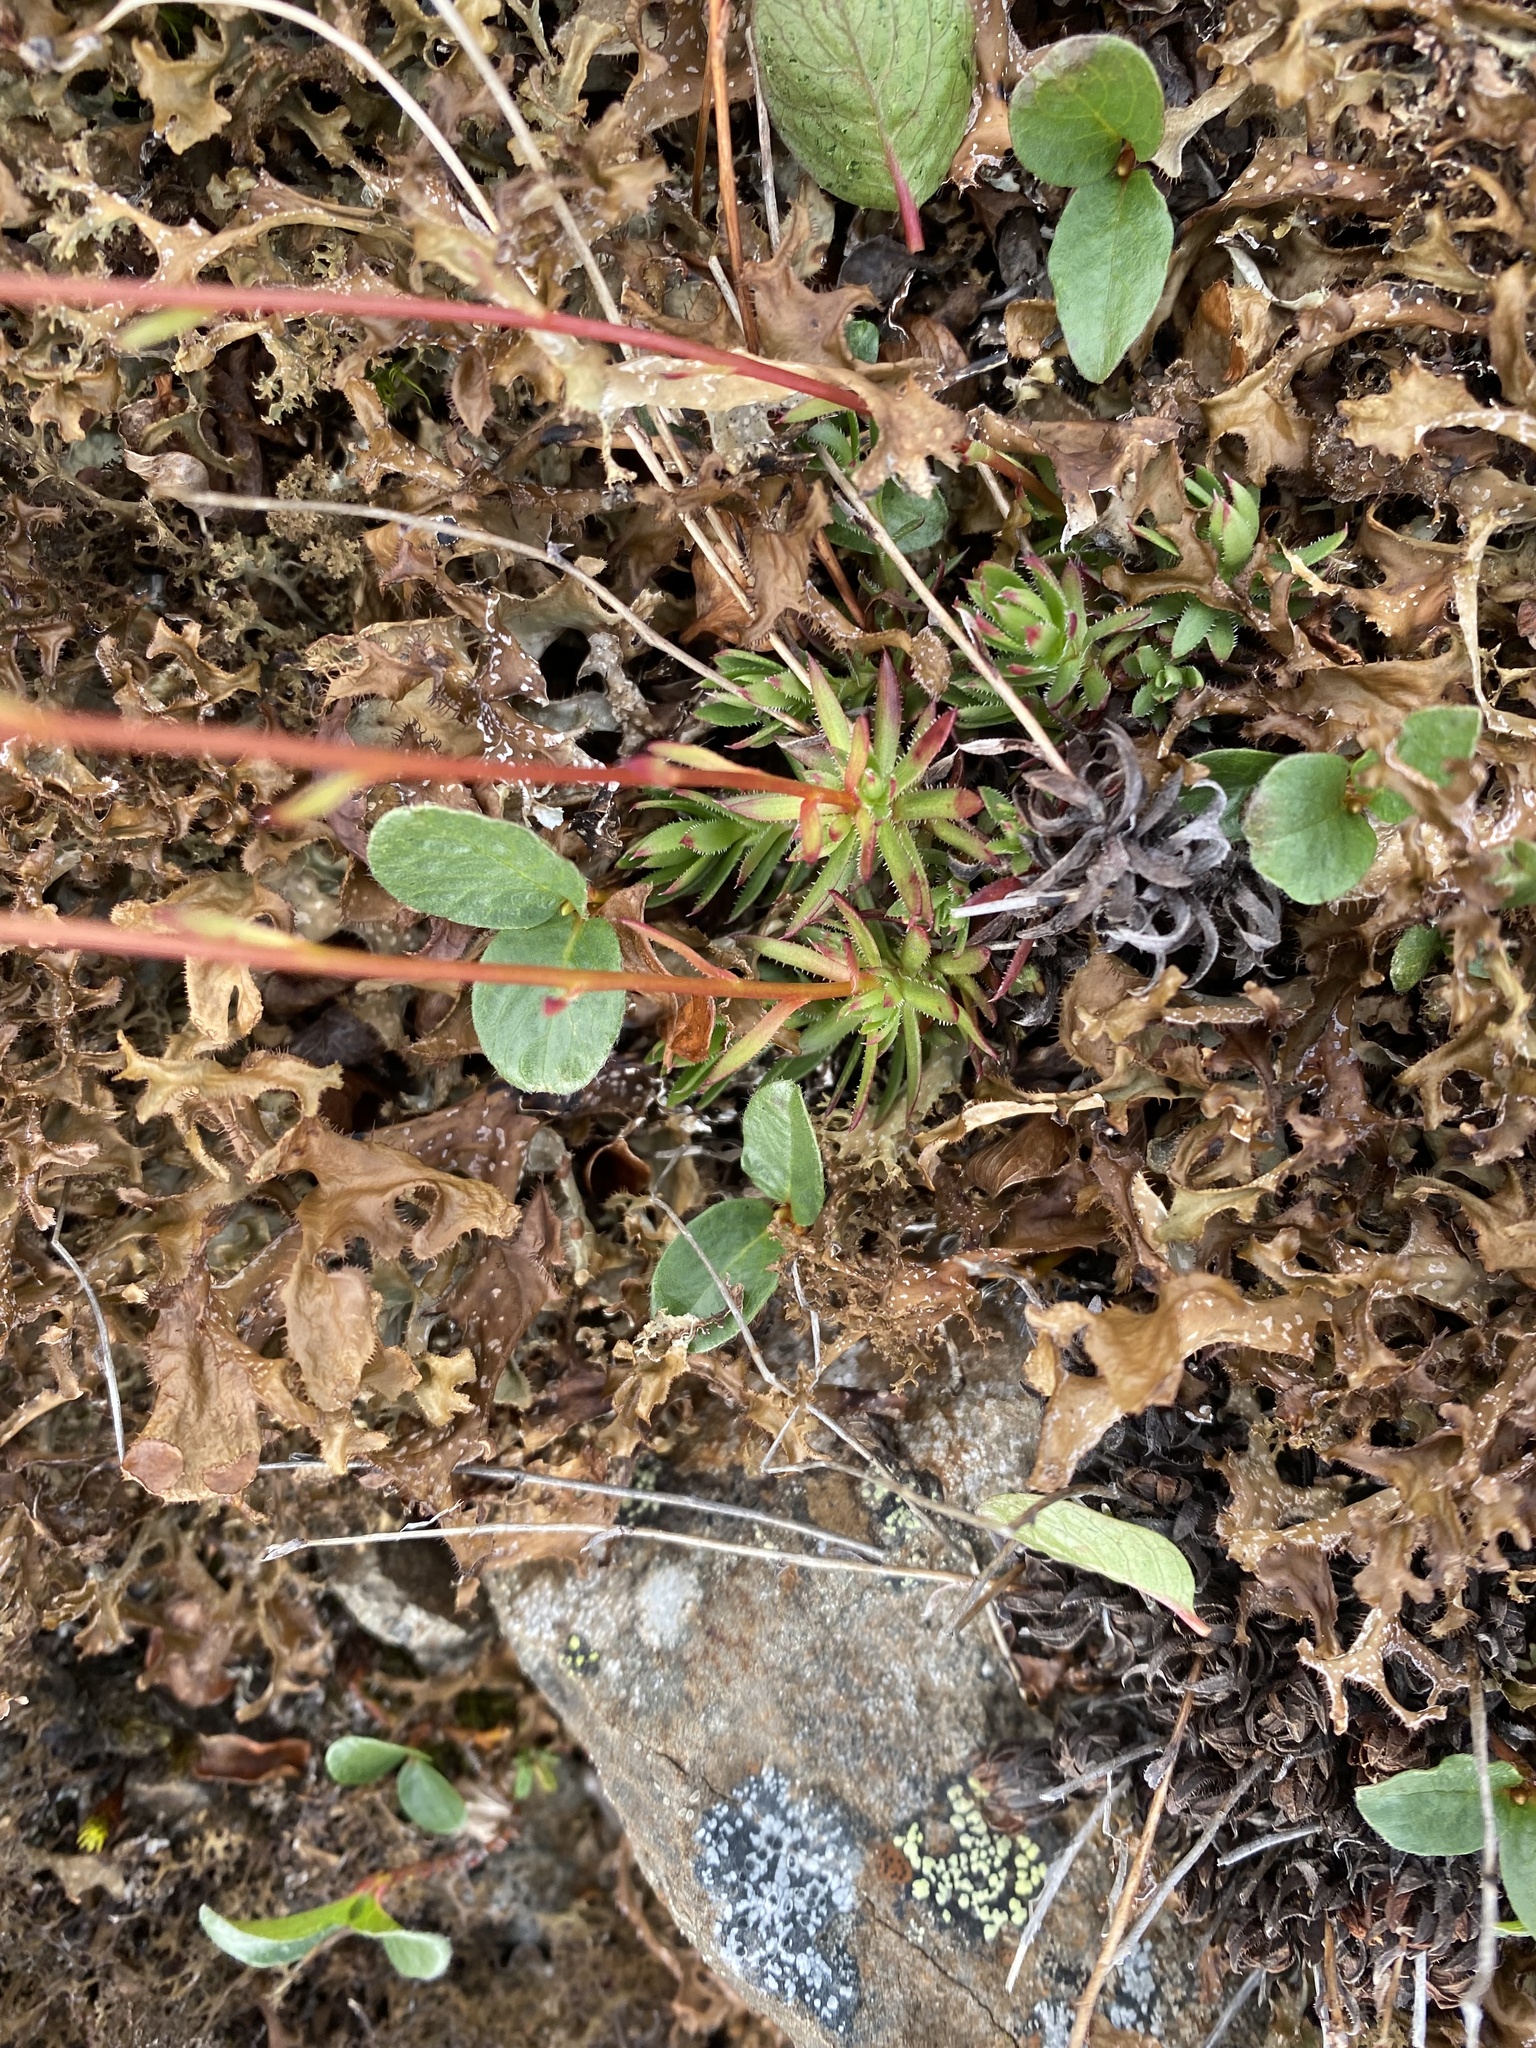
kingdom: Plantae
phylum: Tracheophyta
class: Magnoliopsida
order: Saxifragales
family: Saxifragaceae
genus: Saxifraga
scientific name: Saxifraga
